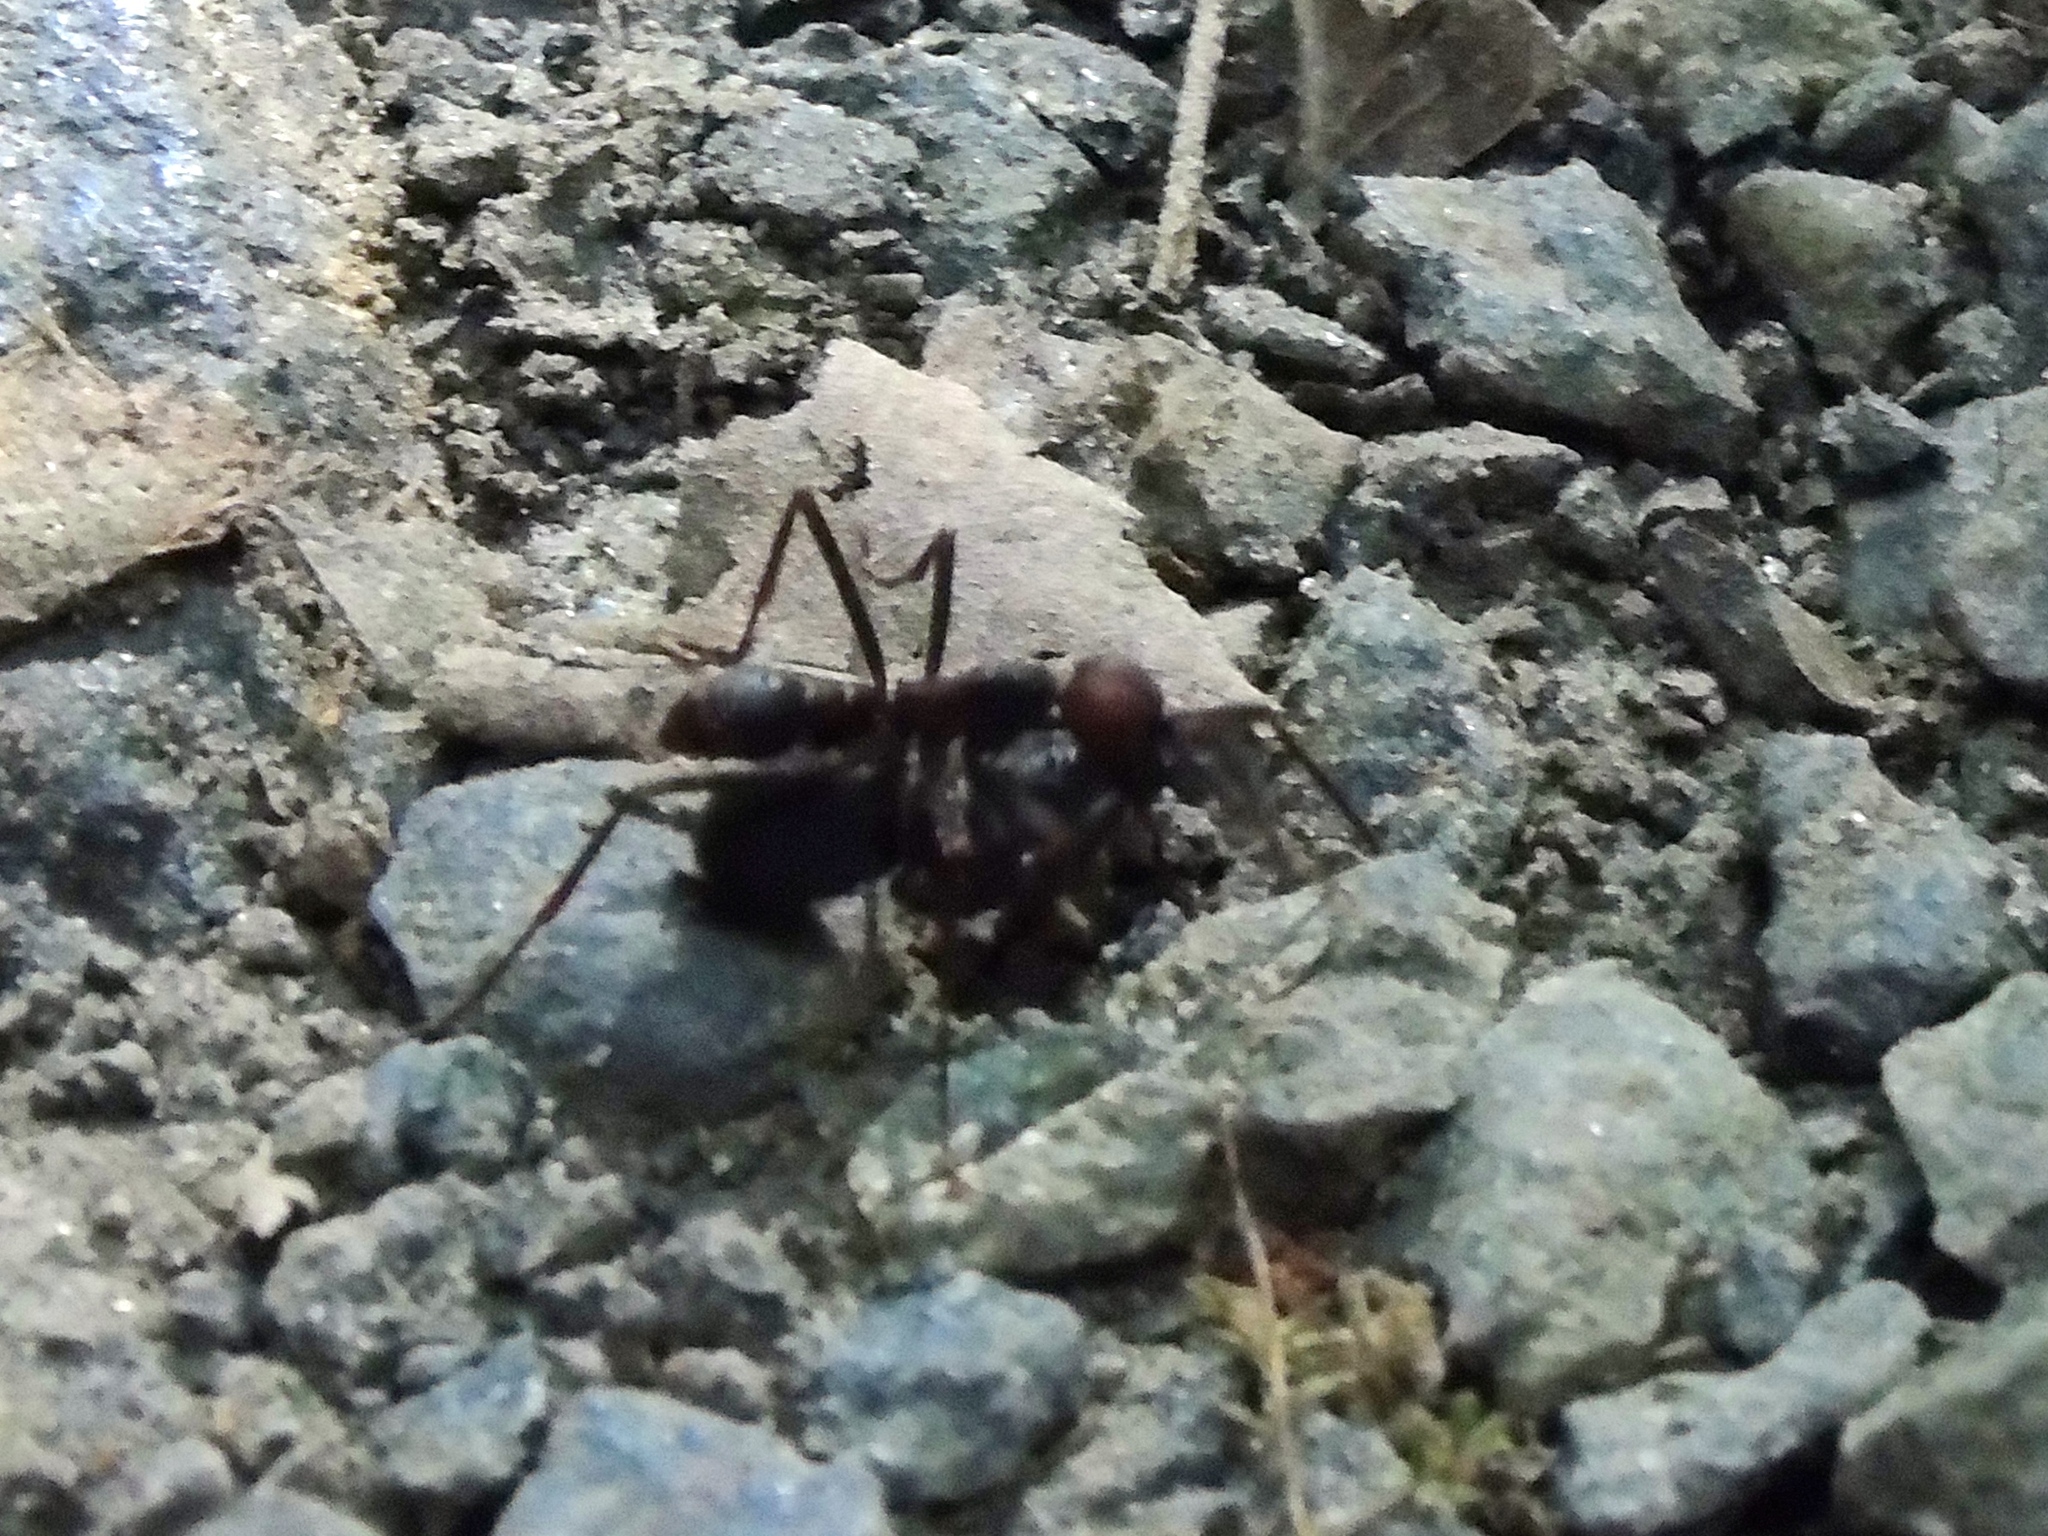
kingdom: Animalia
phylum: Arthropoda
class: Insecta
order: Hymenoptera
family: Formicidae
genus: Eciton
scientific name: Eciton burchellii
